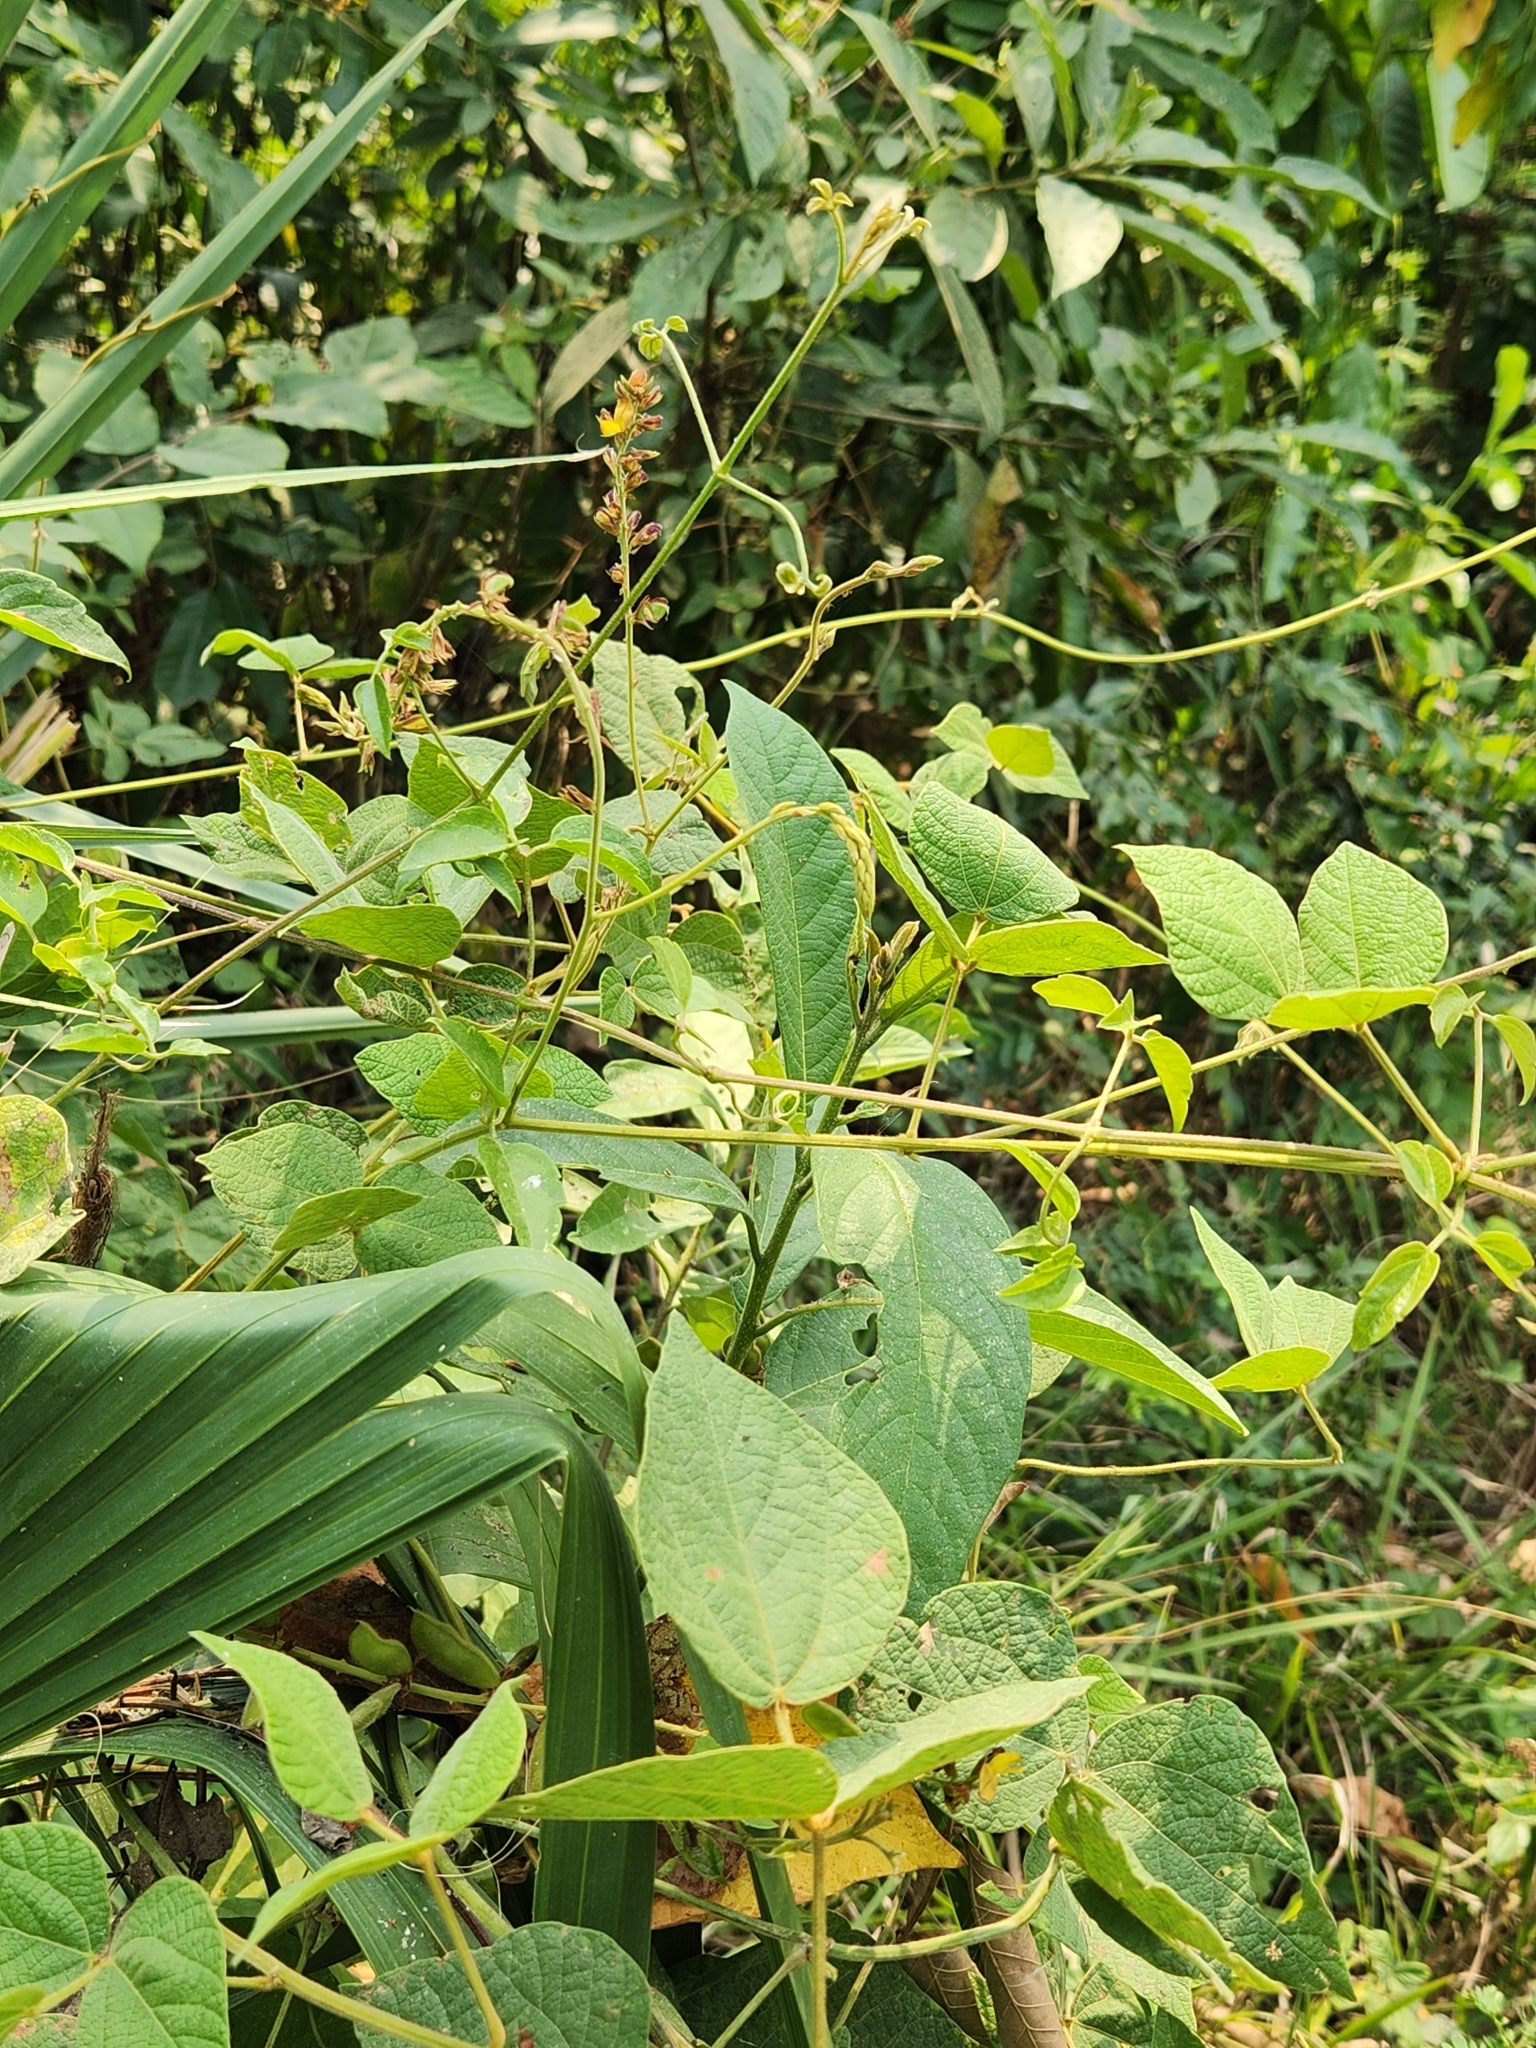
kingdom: Plantae
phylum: Tracheophyta
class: Magnoliopsida
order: Fabales
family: Fabaceae
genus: Cajanus
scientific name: Cajanus cajan
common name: Pigeonpea
